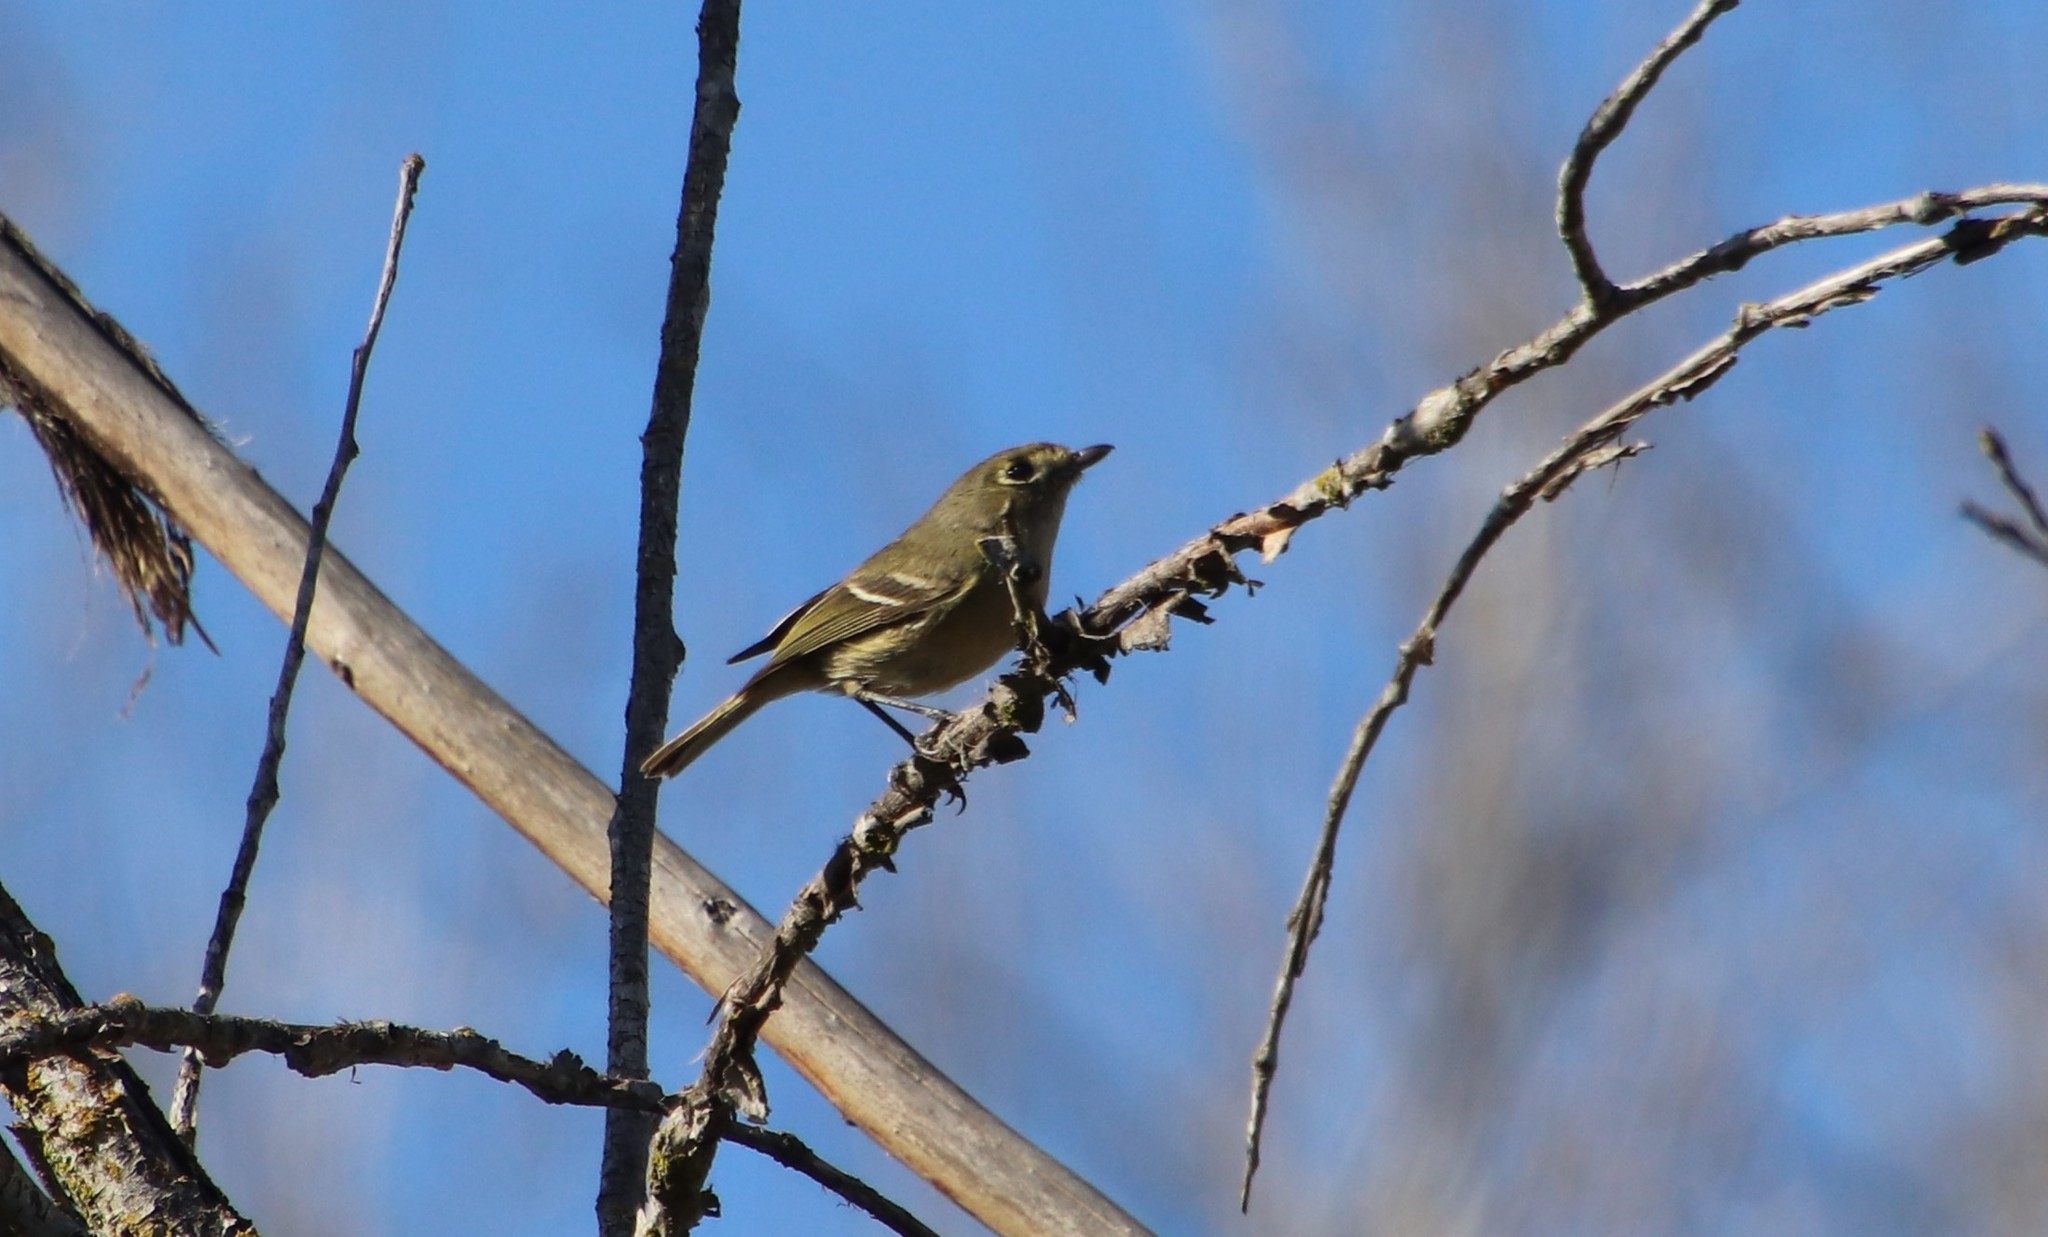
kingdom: Animalia
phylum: Chordata
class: Aves
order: Passeriformes
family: Vireonidae
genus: Vireo
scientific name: Vireo huttoni
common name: Hutton's vireo
